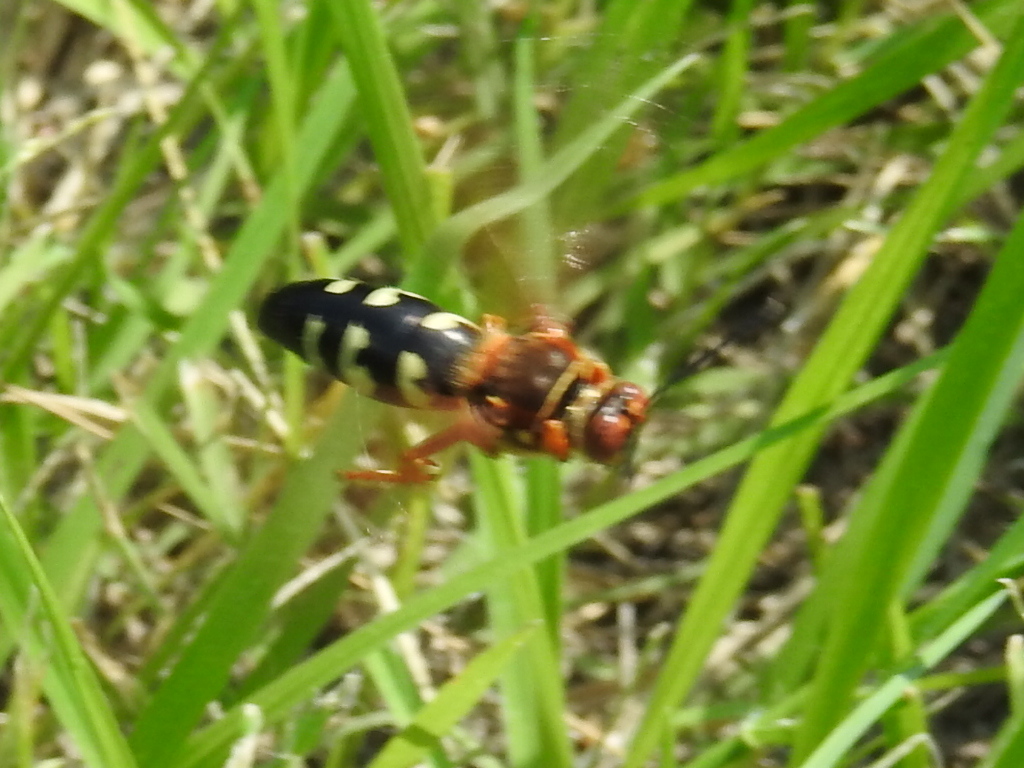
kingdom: Animalia
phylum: Arthropoda
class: Insecta
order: Hymenoptera
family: Crabronidae
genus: Sphecius
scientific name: Sphecius speciosus
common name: Cicada killer
